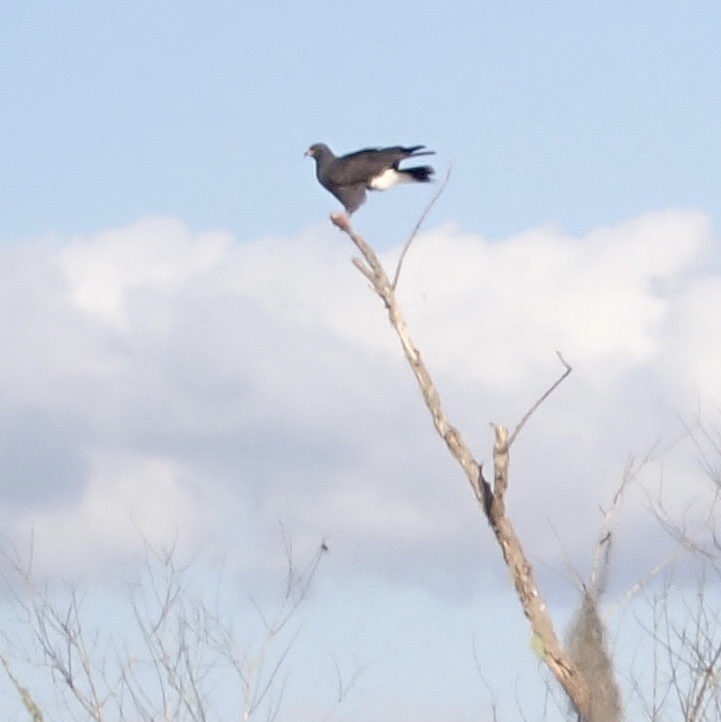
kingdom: Animalia
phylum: Chordata
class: Aves
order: Accipitriformes
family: Accipitridae
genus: Rostrhamus
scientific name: Rostrhamus sociabilis
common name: Snail kite
